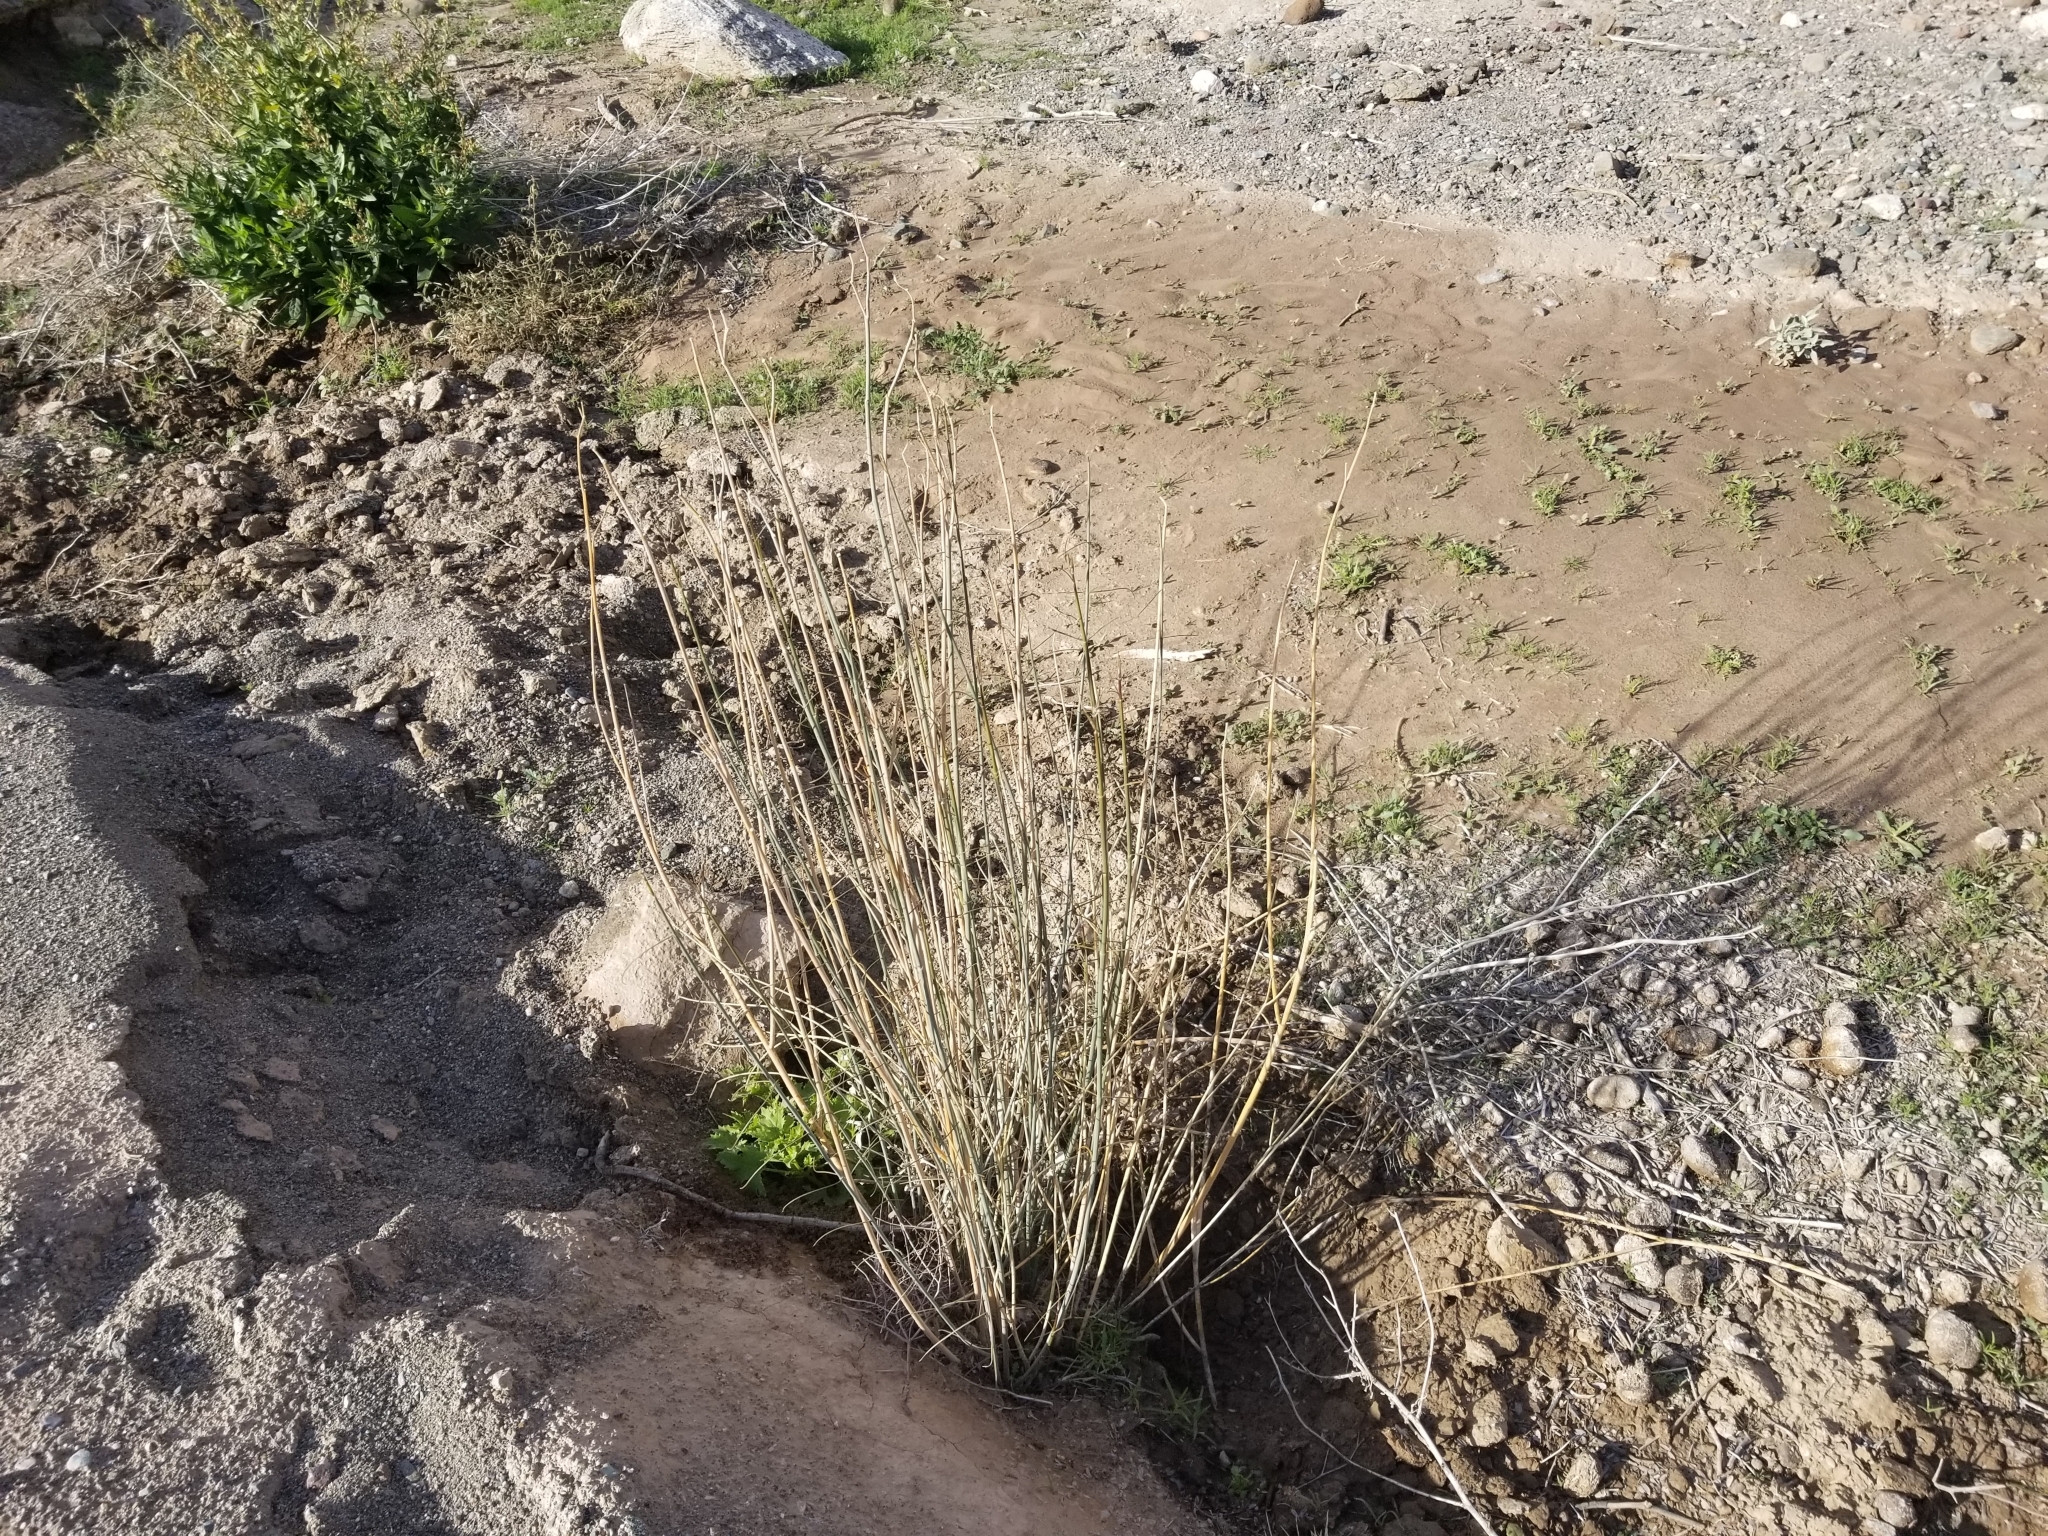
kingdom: Plantae
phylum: Tracheophyta
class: Magnoliopsida
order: Gentianales
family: Apocynaceae
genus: Asclepias
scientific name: Asclepias subulata
